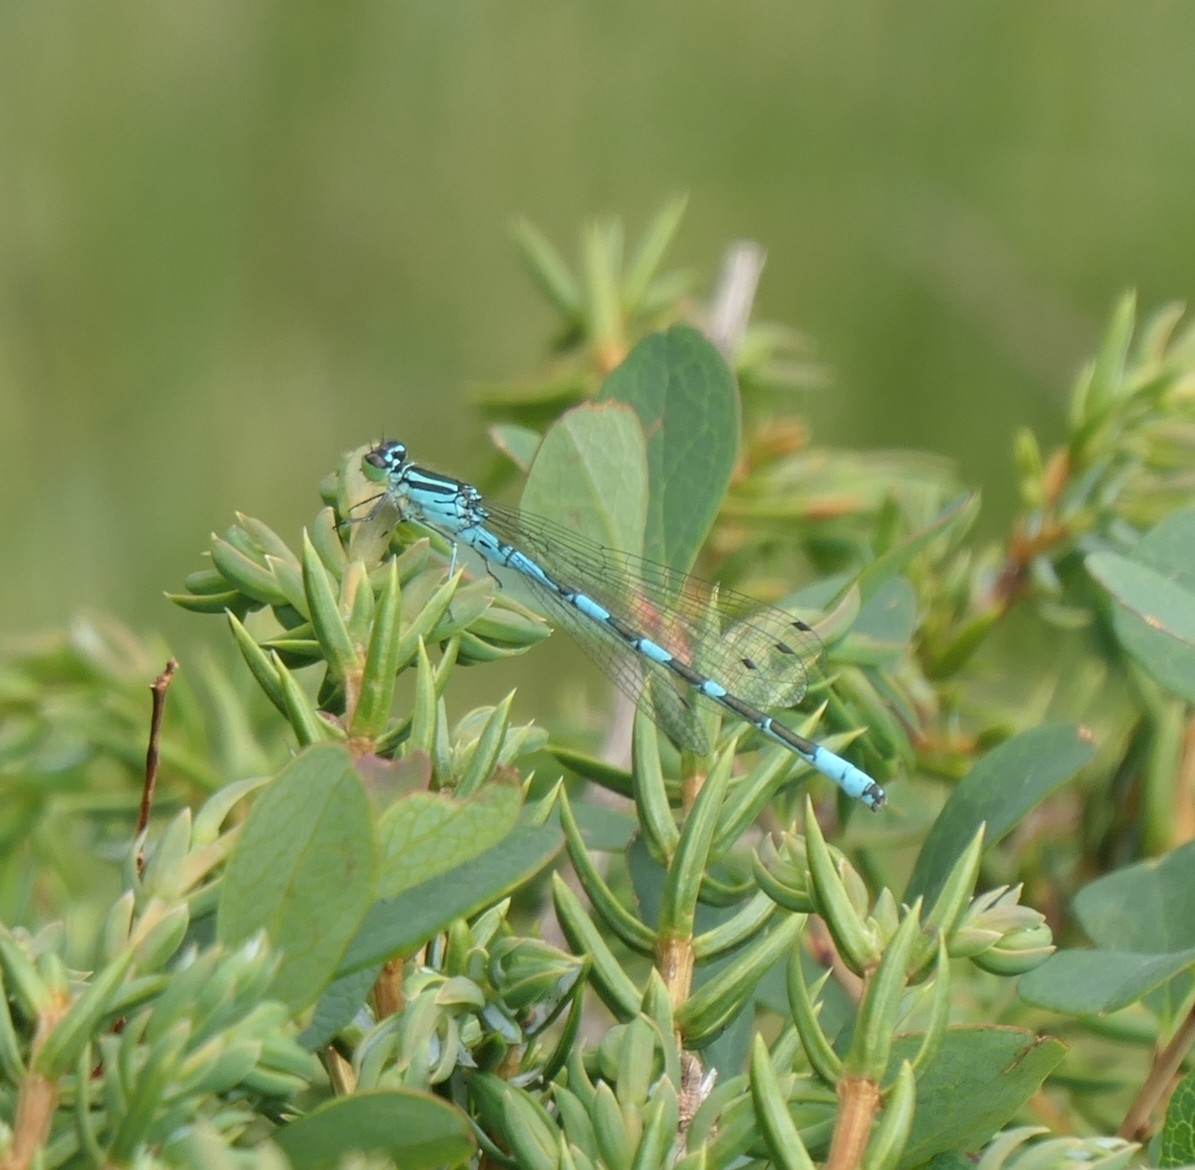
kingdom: Animalia
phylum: Arthropoda
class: Insecta
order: Odonata
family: Coenagrionidae
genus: Coenagrion
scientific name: Coenagrion hastulatum
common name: Spearhead bluet
